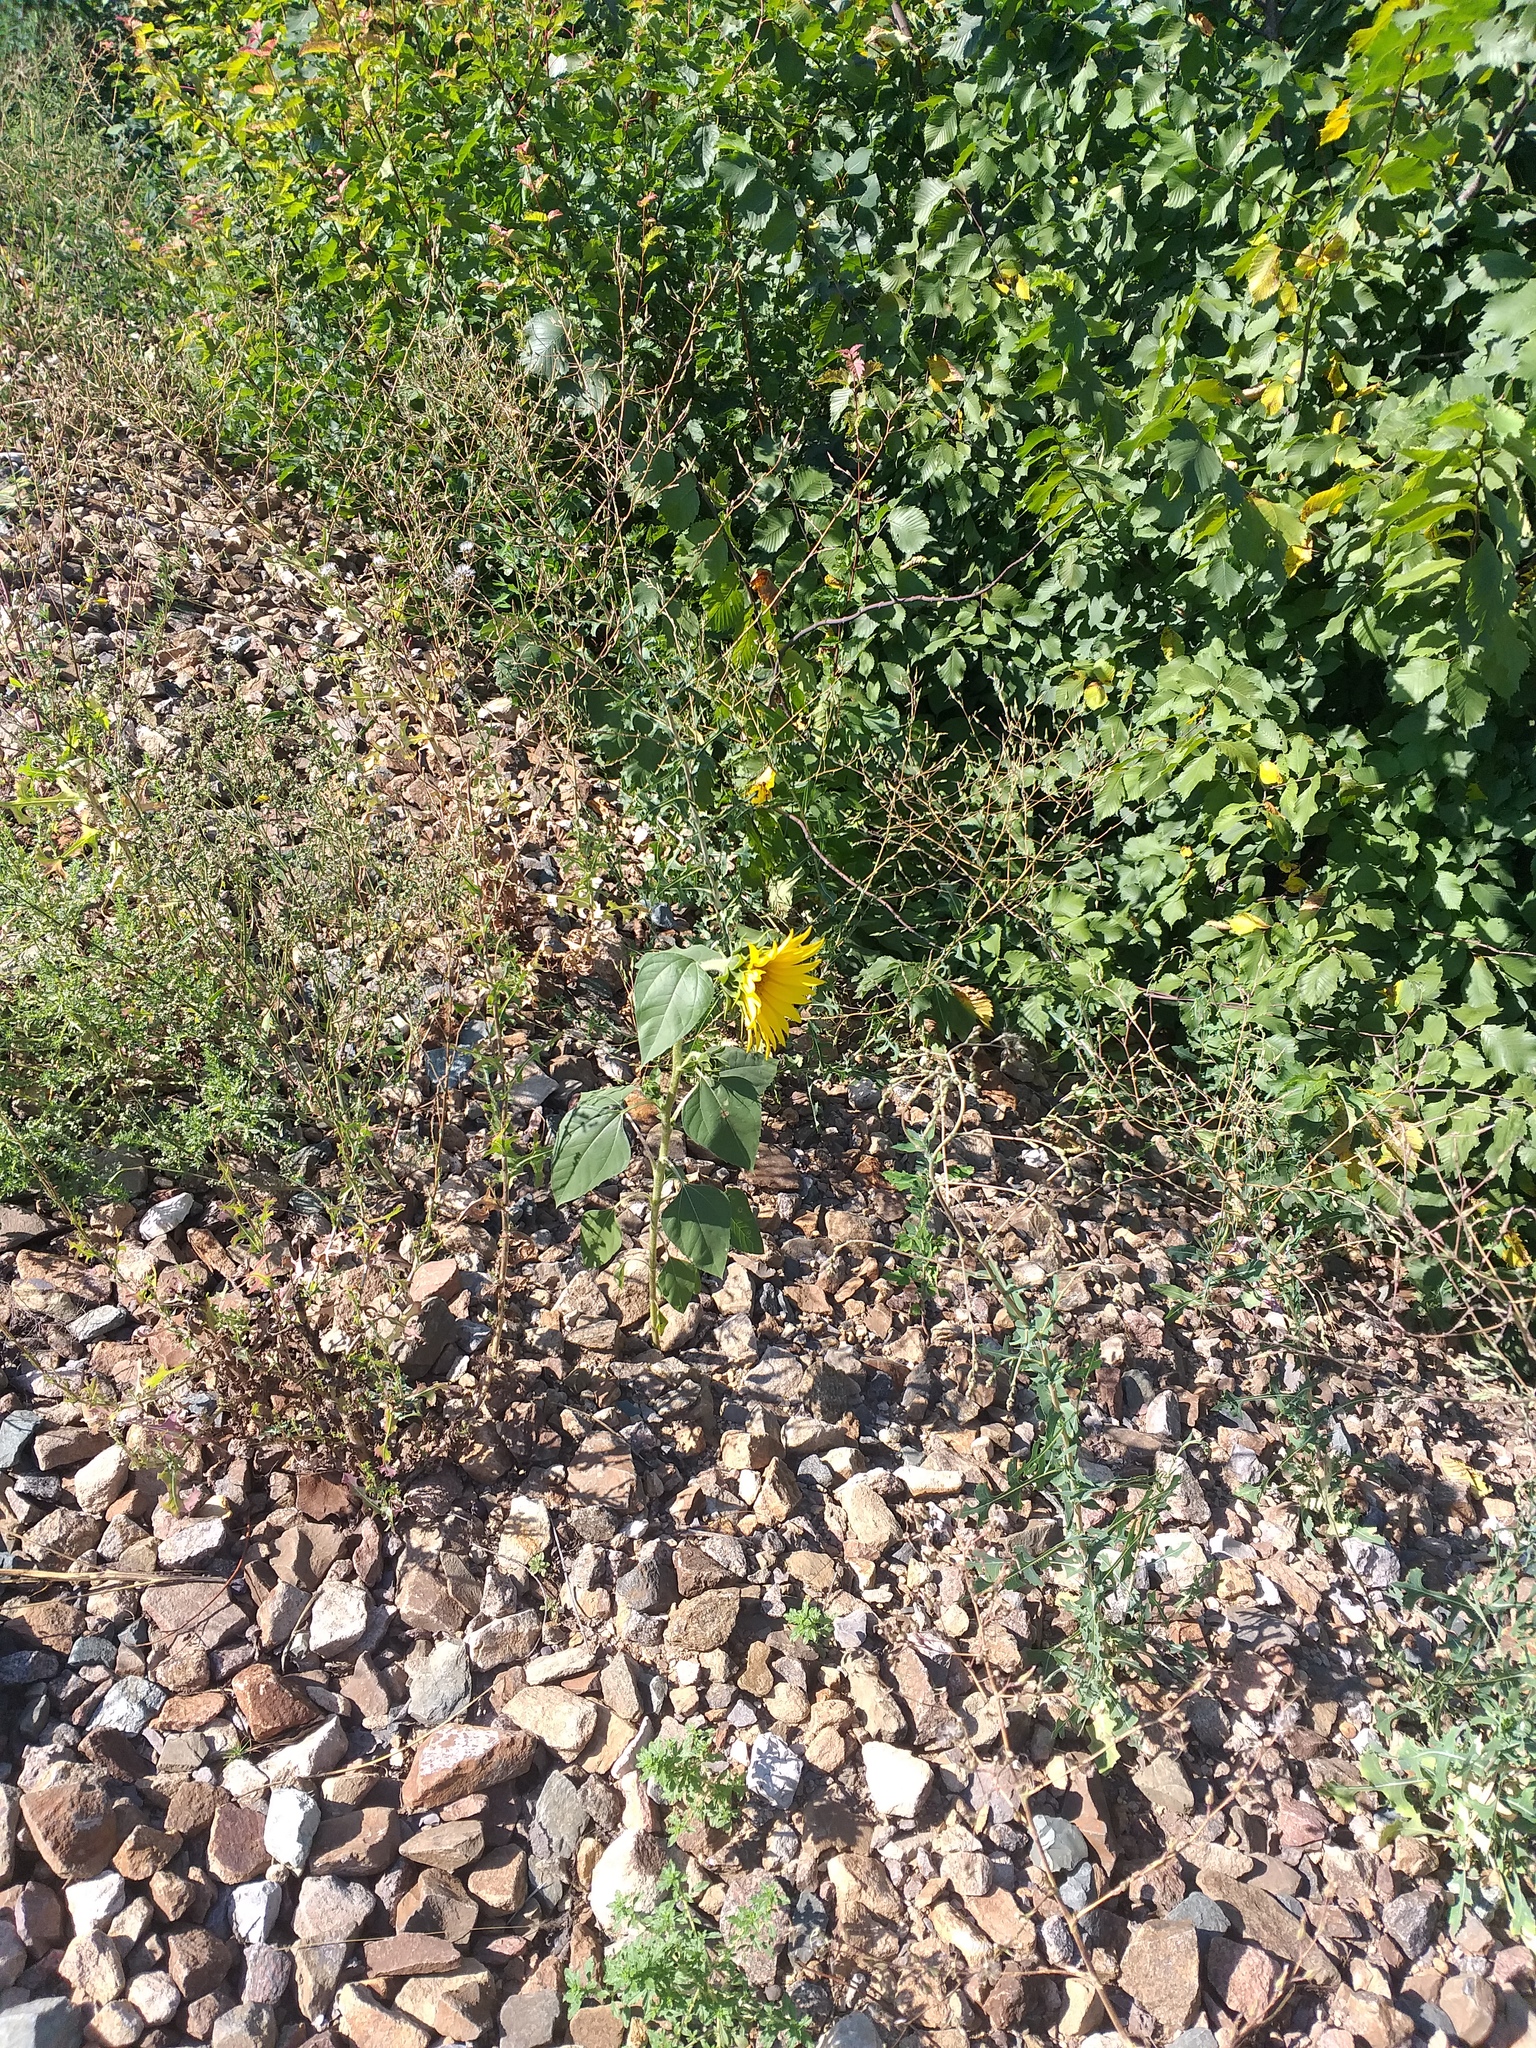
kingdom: Plantae
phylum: Tracheophyta
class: Magnoliopsida
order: Asterales
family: Asteraceae
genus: Helianthus
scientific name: Helianthus annuus
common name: Sunflower
